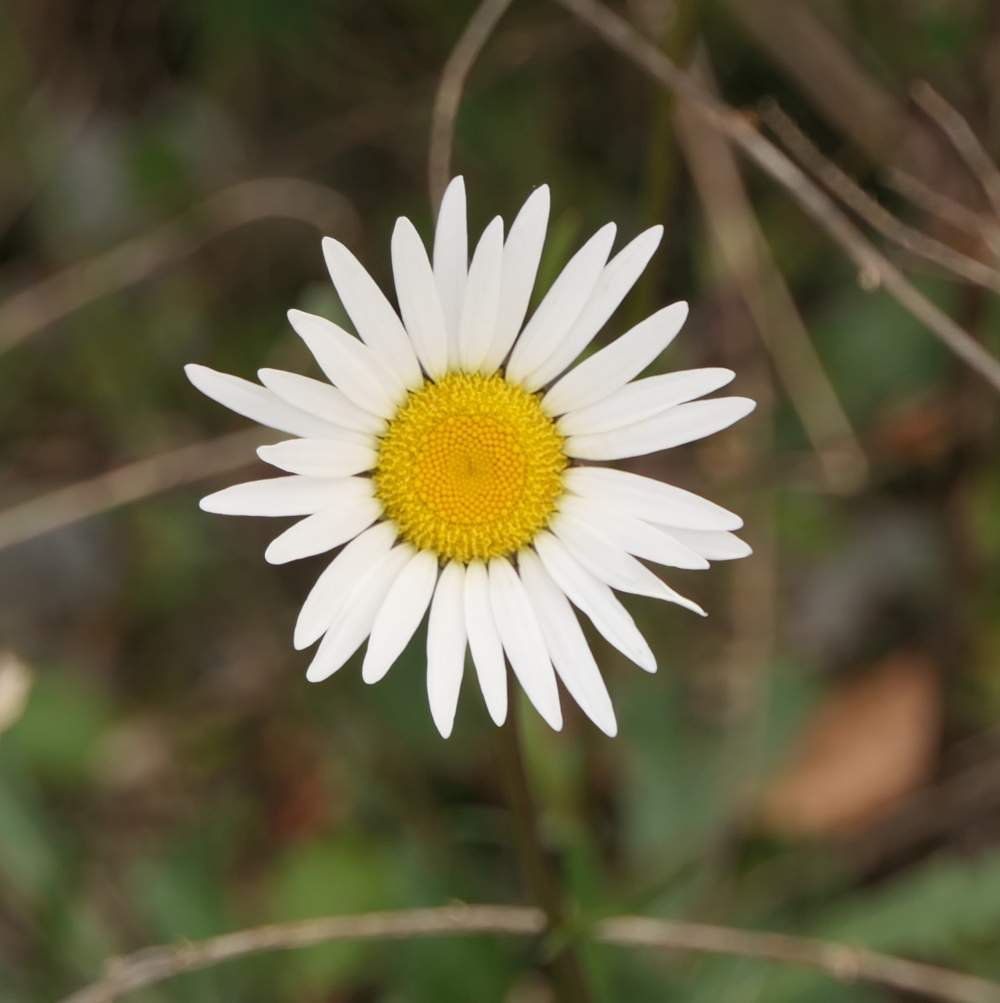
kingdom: Plantae
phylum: Tracheophyta
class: Magnoliopsida
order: Asterales
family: Asteraceae
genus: Leucanthemum
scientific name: Leucanthemum vulgare
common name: Oxeye daisy
